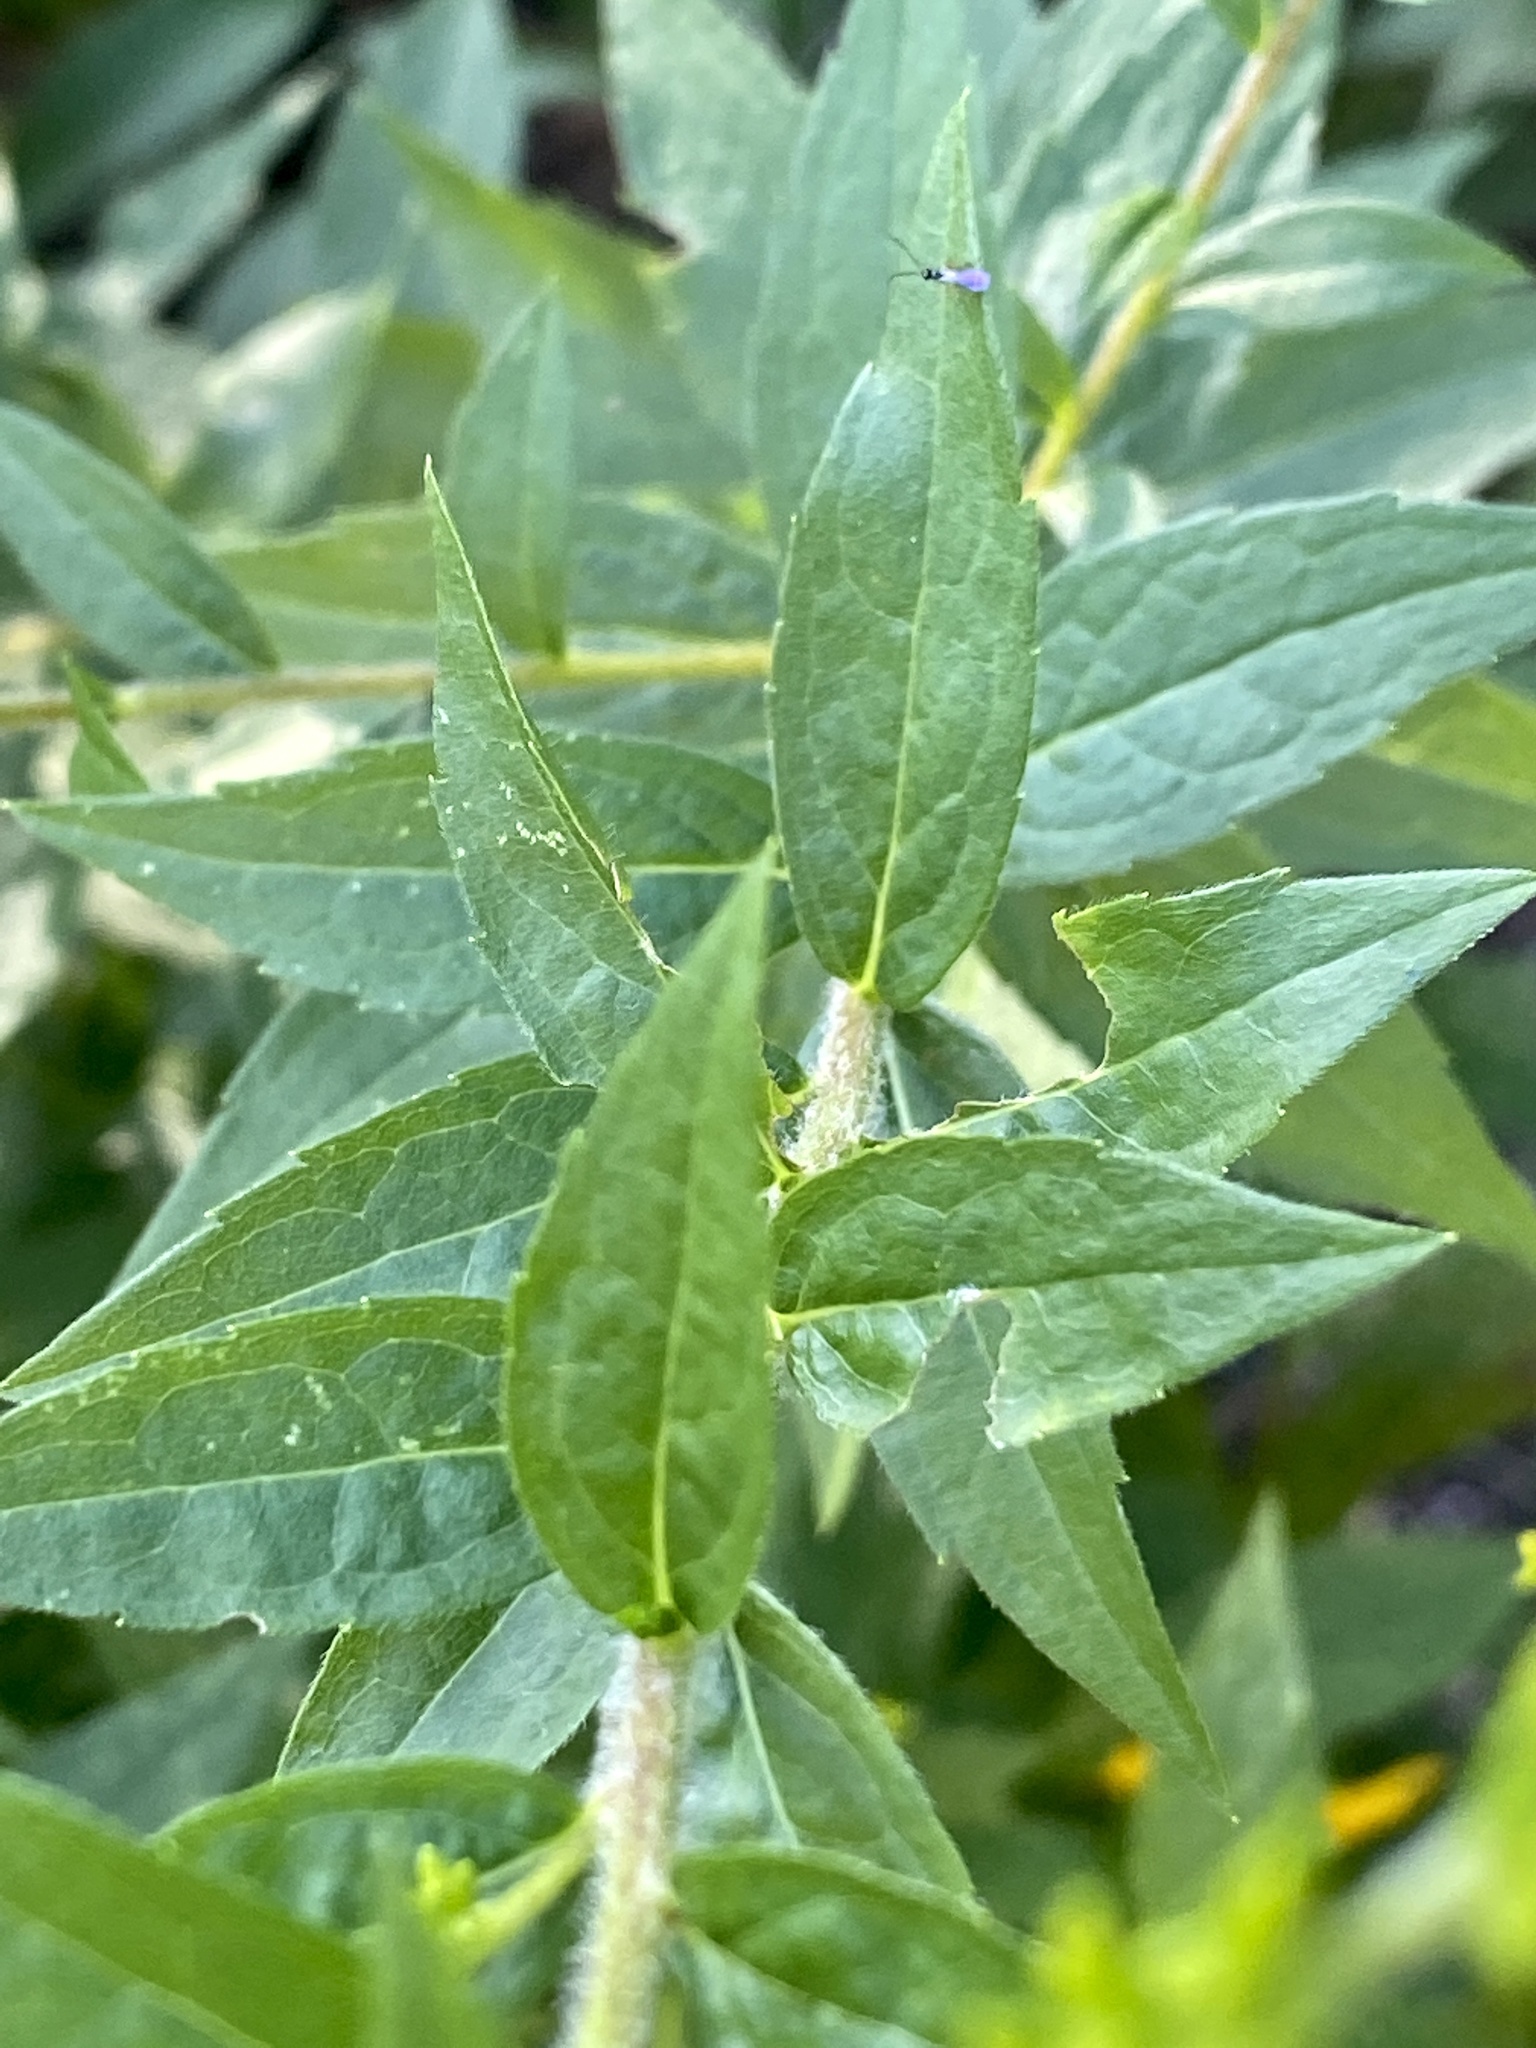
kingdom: Plantae
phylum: Tracheophyta
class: Magnoliopsida
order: Asterales
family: Asteraceae
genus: Solidago
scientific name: Solidago rugosa
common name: Rough-stemmed goldenrod
